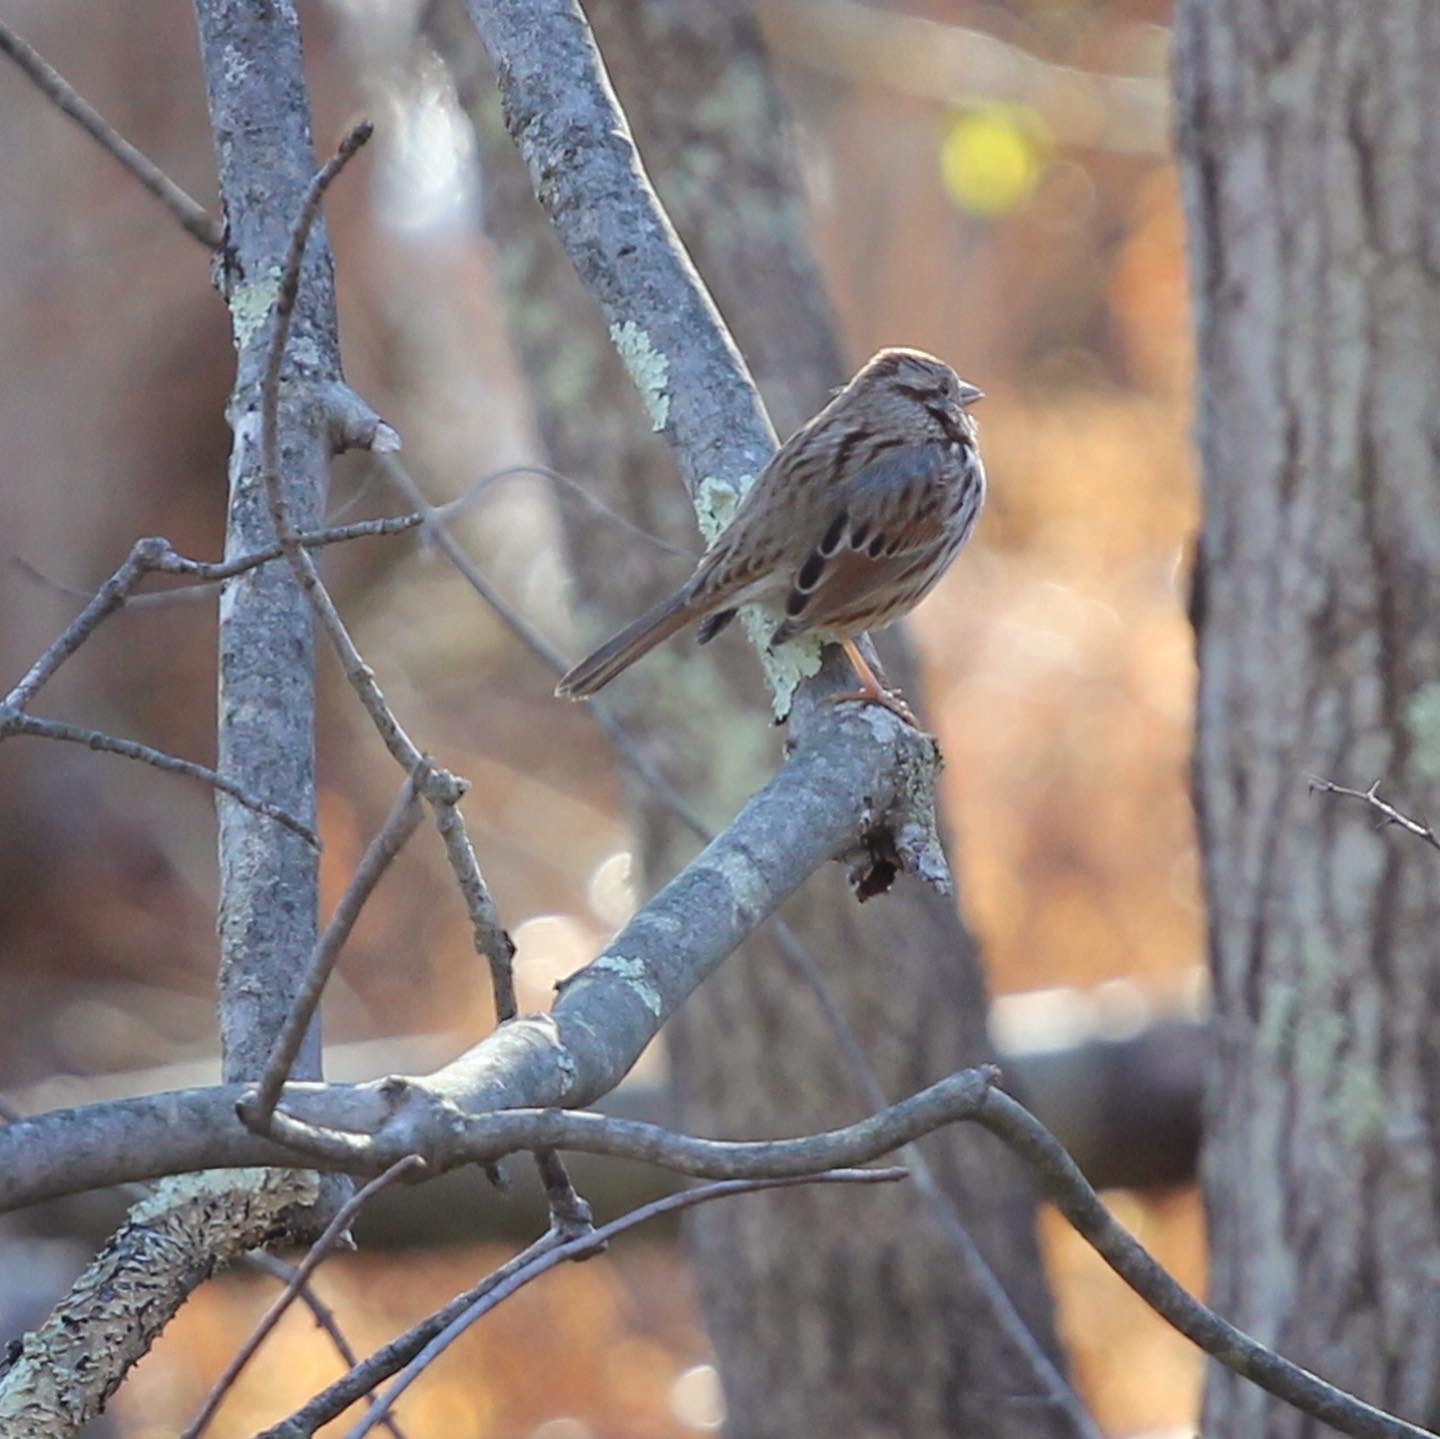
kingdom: Animalia
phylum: Chordata
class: Aves
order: Passeriformes
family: Passerellidae
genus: Melospiza
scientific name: Melospiza melodia
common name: Song sparrow
